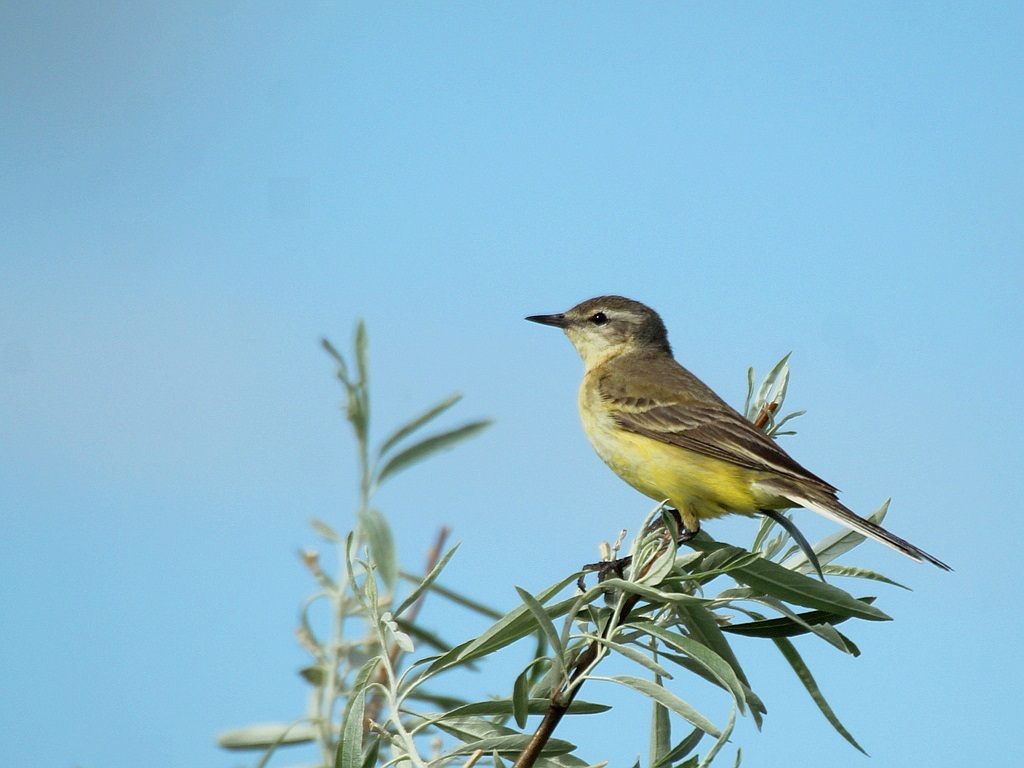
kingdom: Animalia
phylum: Chordata
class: Aves
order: Passeriformes
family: Motacillidae
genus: Motacilla
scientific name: Motacilla flava
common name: Western yellow wagtail
